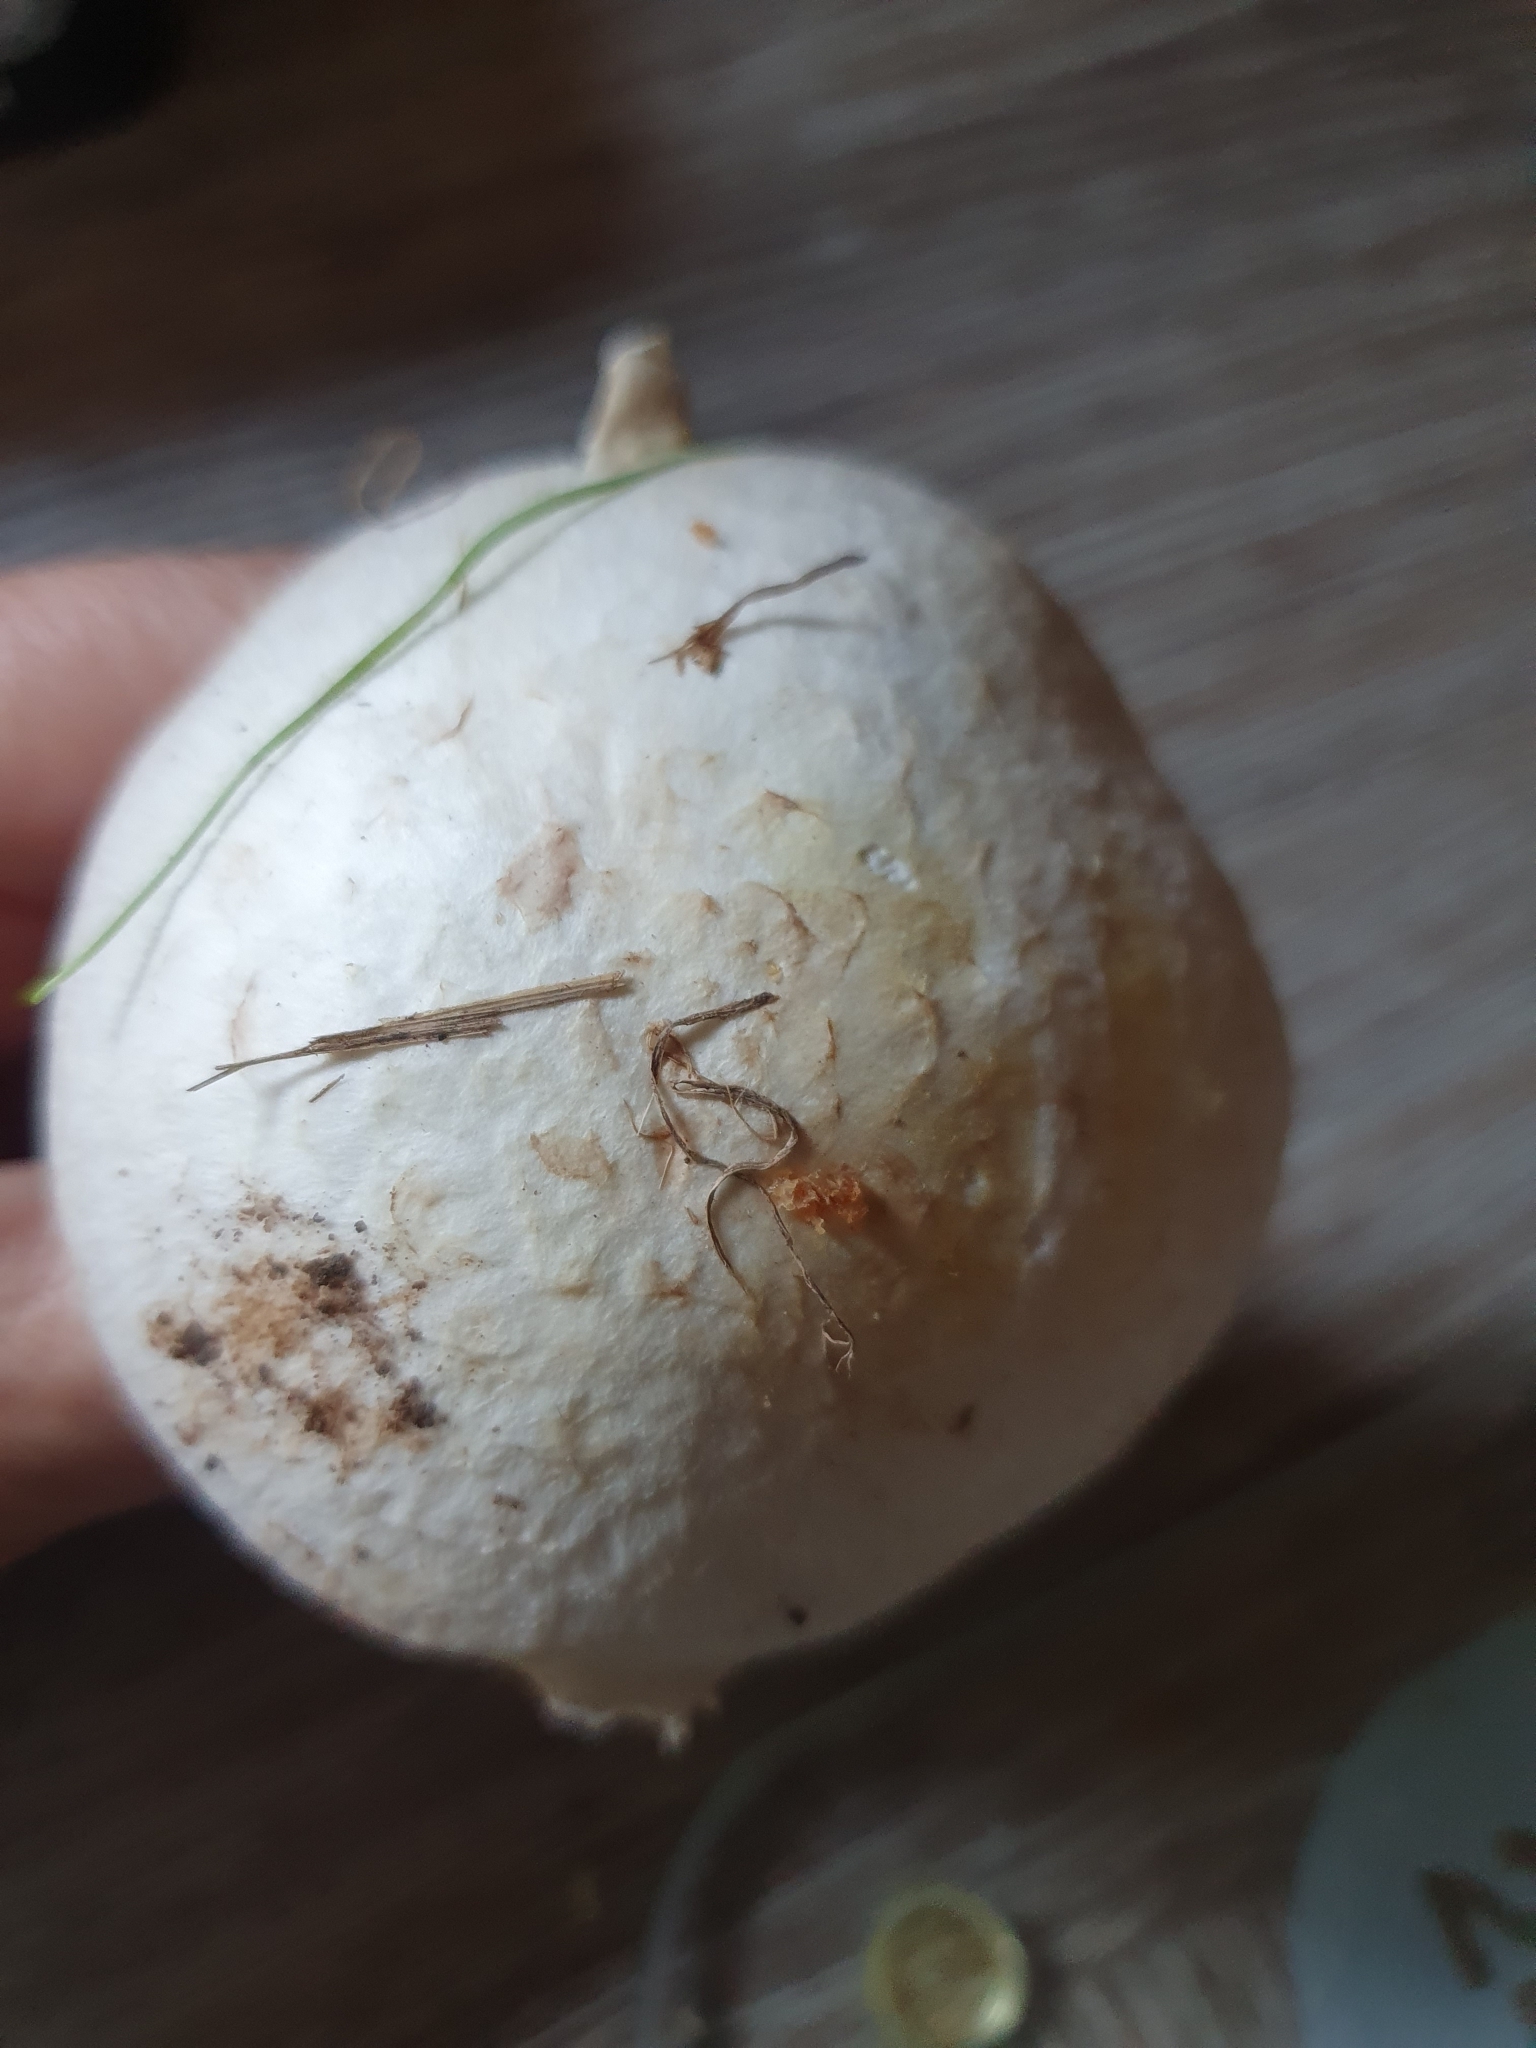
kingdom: Fungi
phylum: Basidiomycota
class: Agaricomycetes
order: Agaricales
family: Agaricaceae
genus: Agaricus
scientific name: Agaricus campestris
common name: Field mushroom
